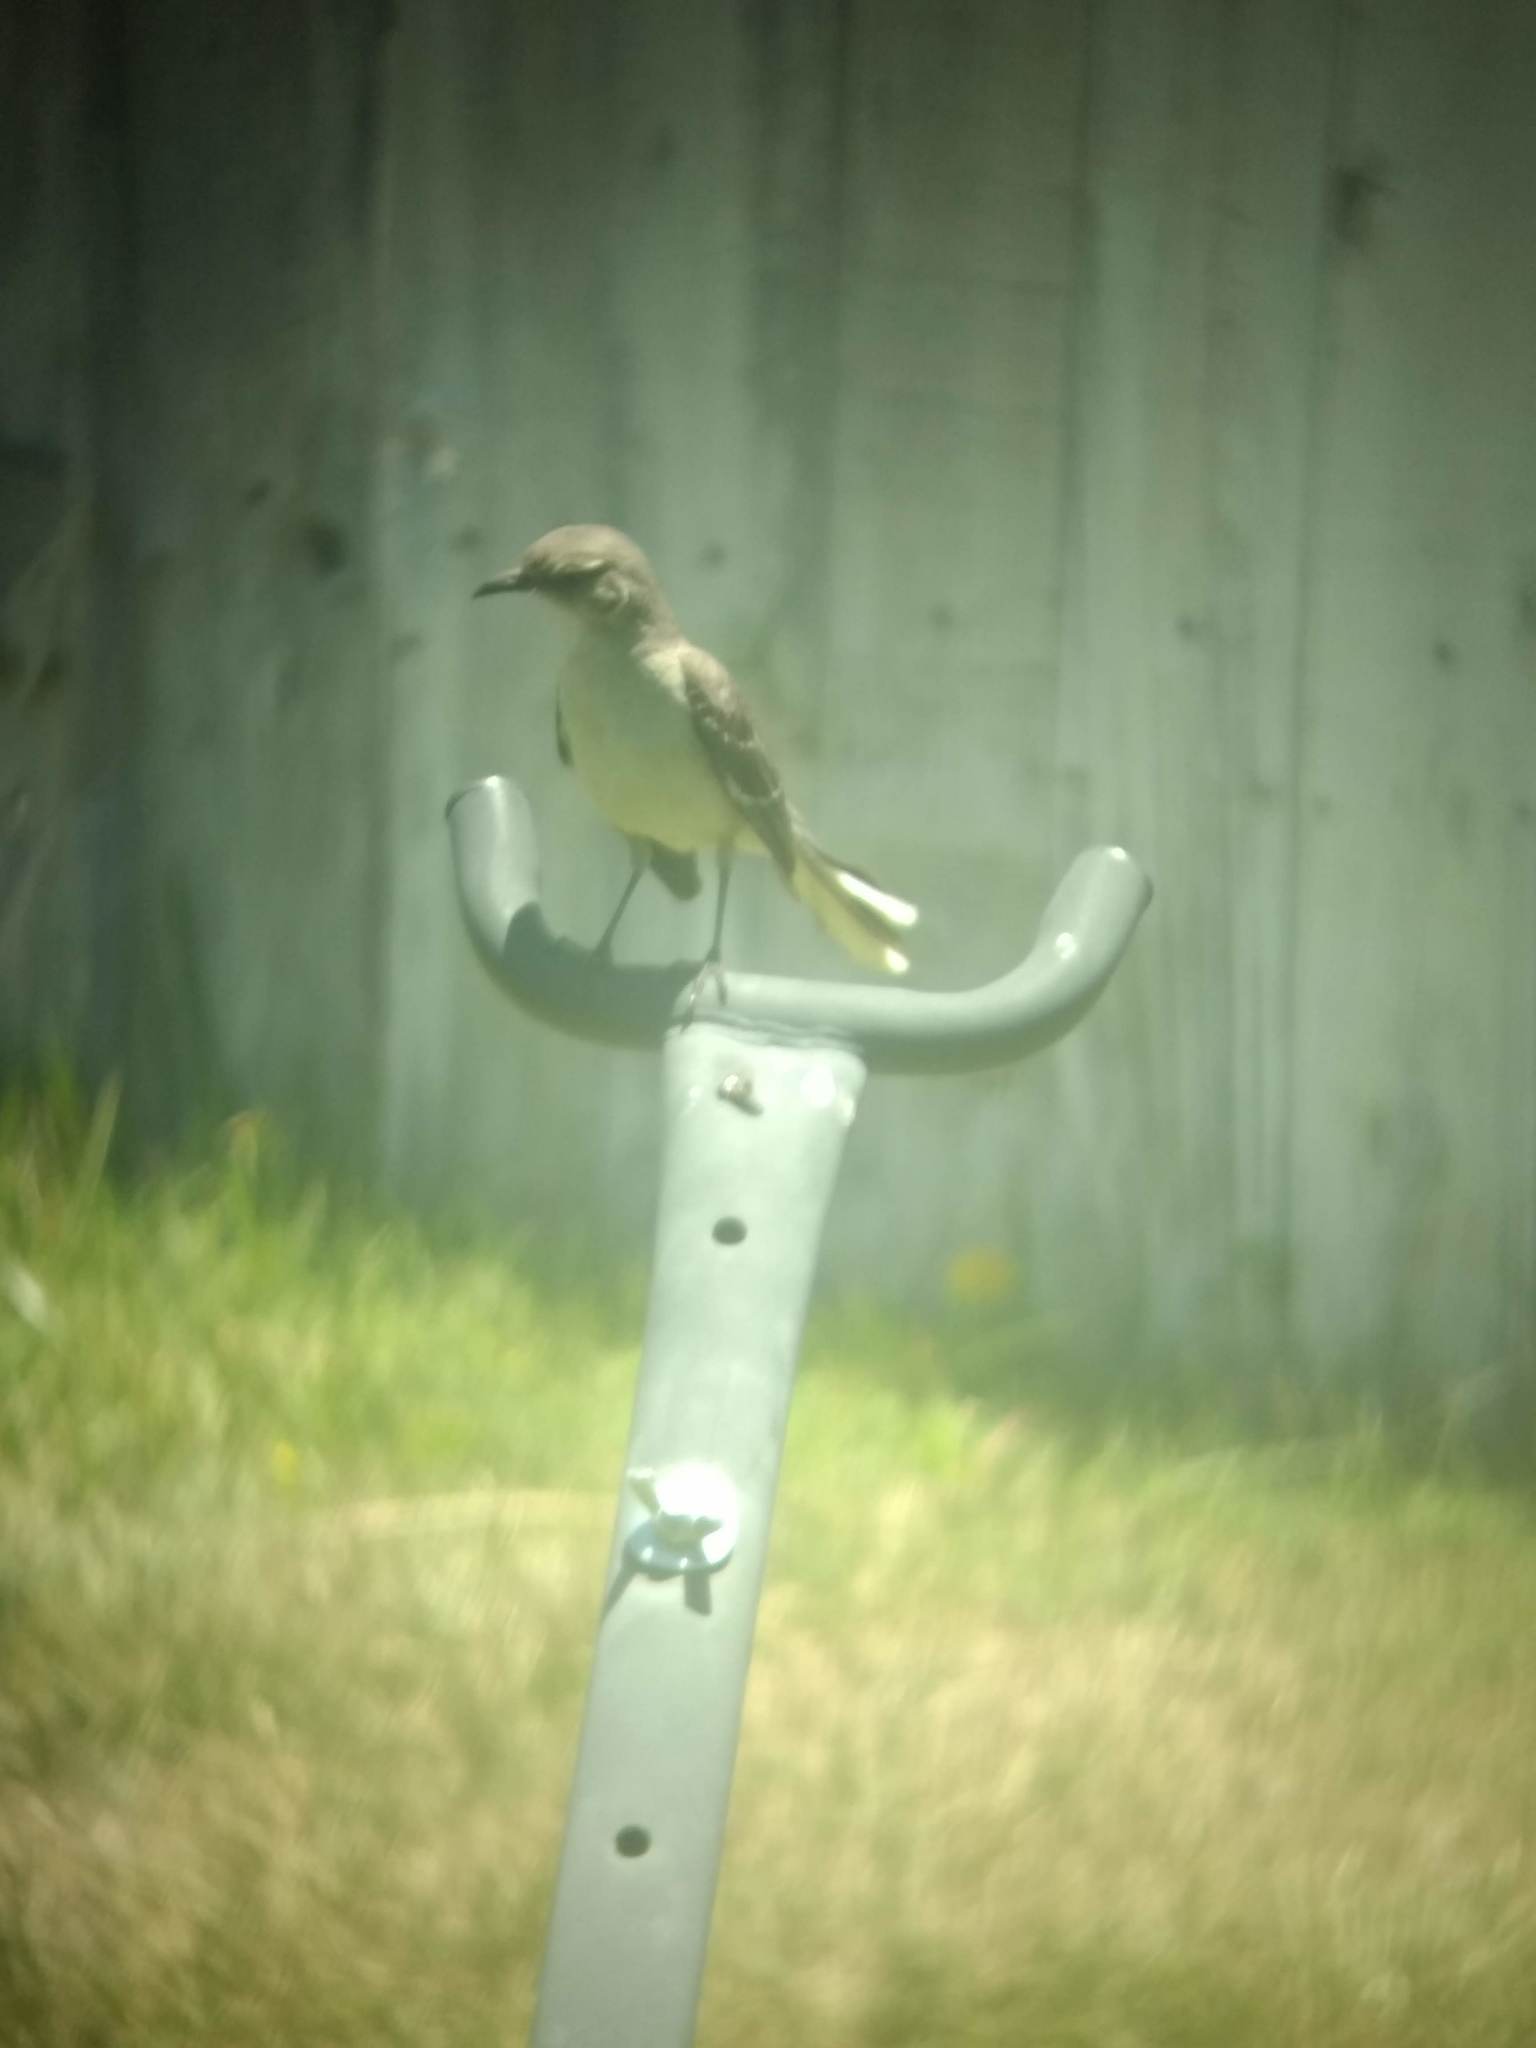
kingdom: Animalia
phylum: Chordata
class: Aves
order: Passeriformes
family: Mimidae
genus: Mimus
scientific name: Mimus polyglottos
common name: Northern mockingbird
